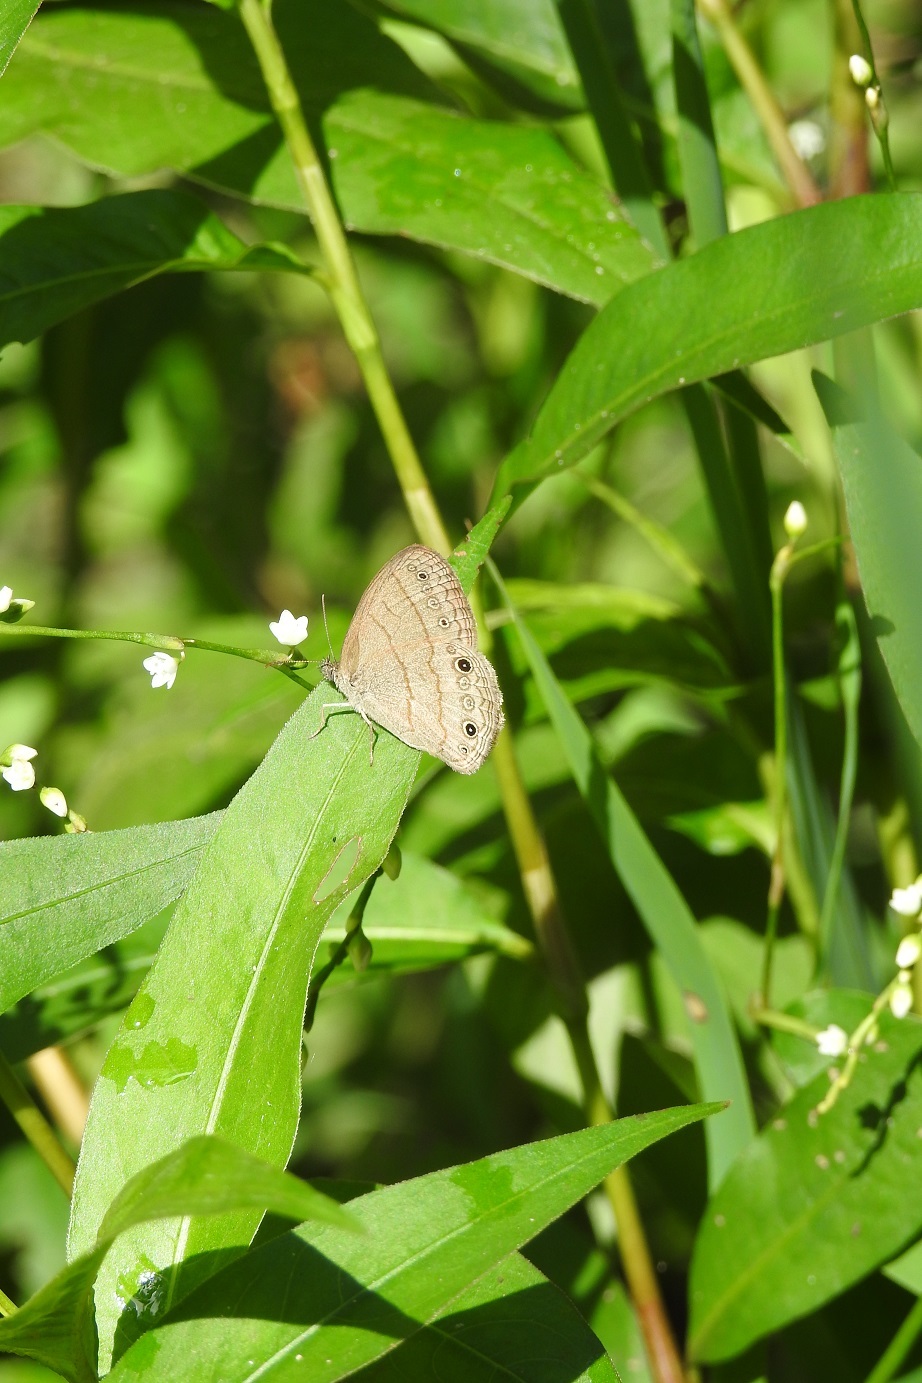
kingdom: Animalia
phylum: Arthropoda
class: Insecta
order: Lepidoptera
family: Nymphalidae
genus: Hermeuptychia
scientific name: Hermeuptychia hermes
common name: Hermes satyr
